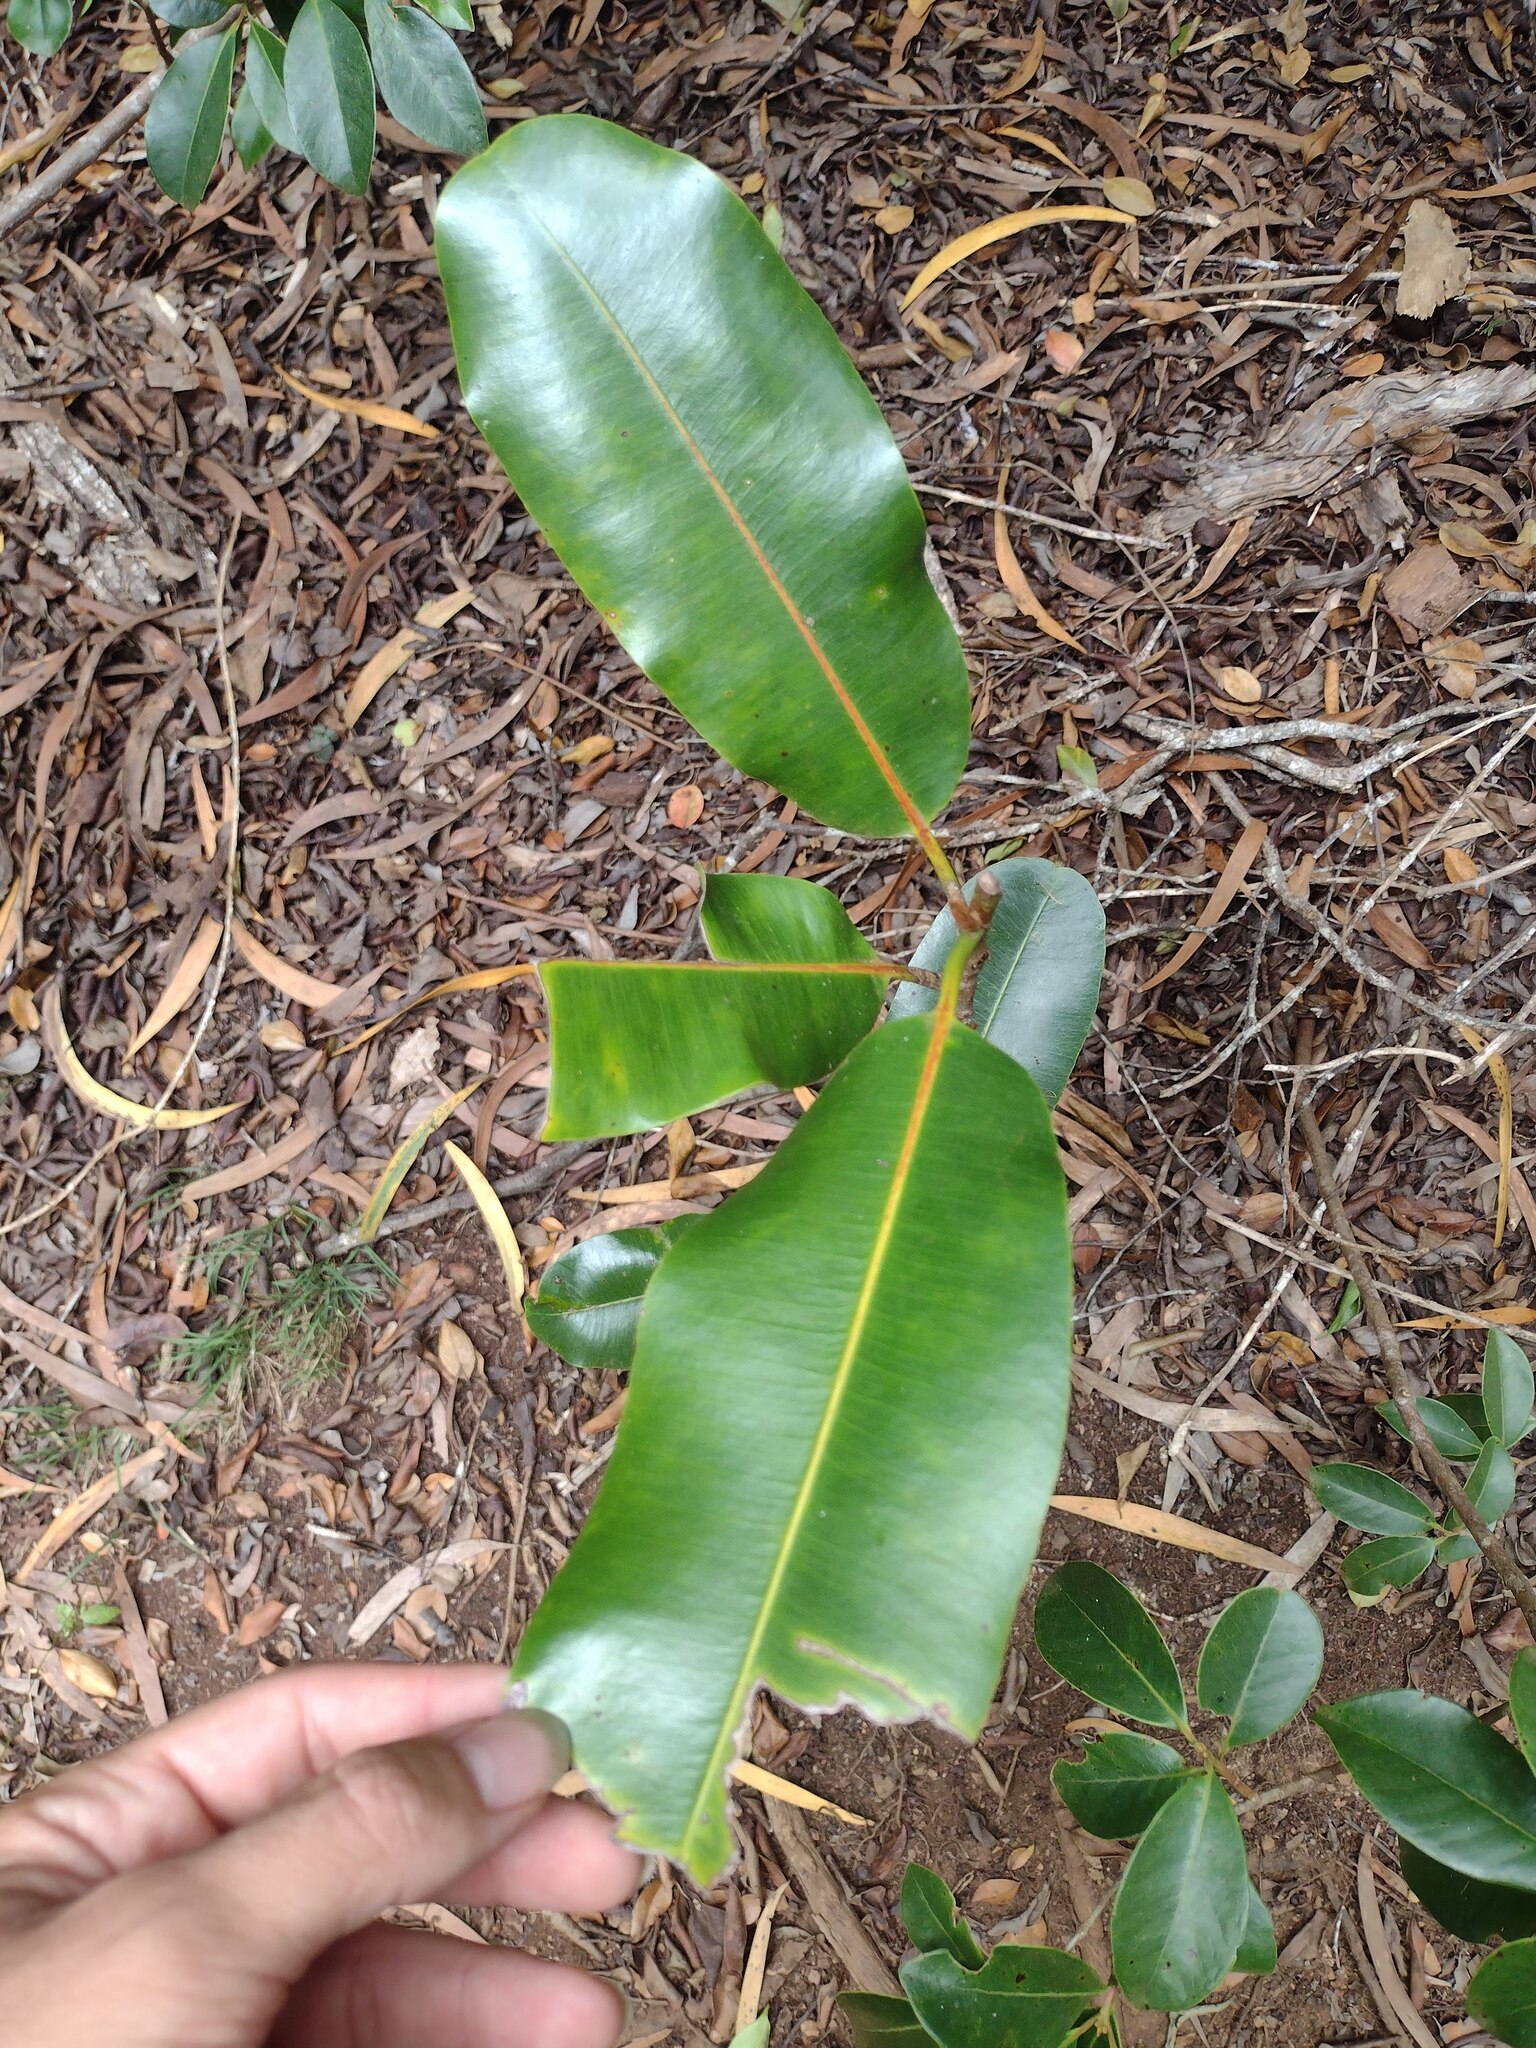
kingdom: Plantae
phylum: Tracheophyta
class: Magnoliopsida
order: Ericales
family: Sapotaceae
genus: Planchonella
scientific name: Planchonella sandwicensis
